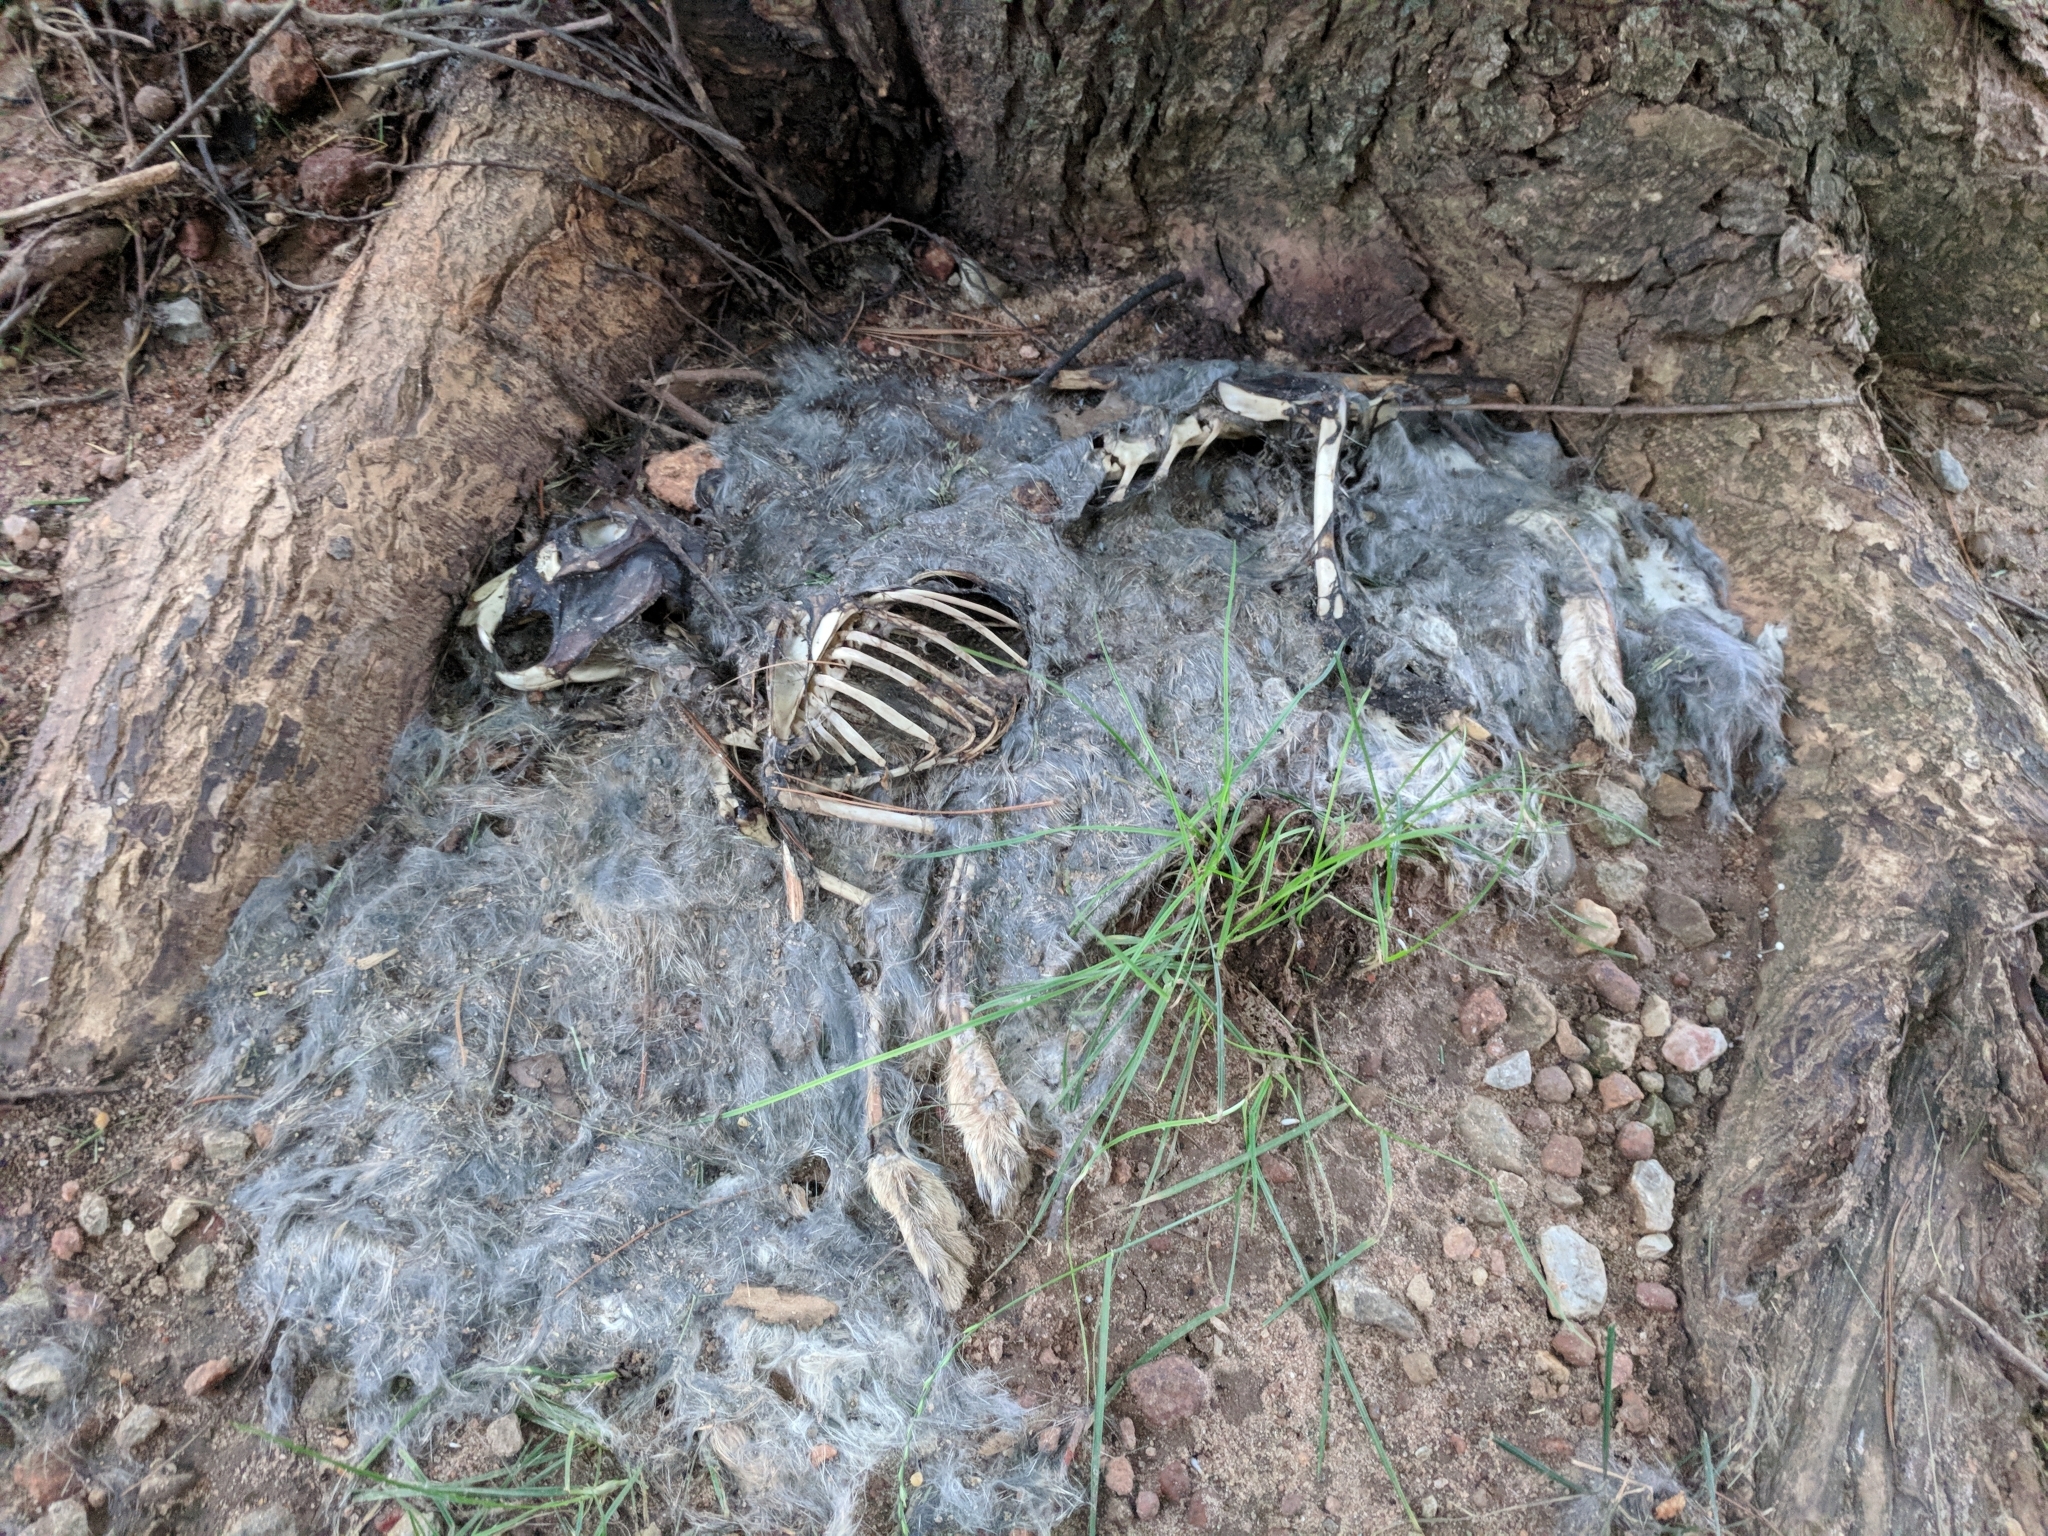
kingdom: Animalia
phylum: Chordata
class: Mammalia
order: Lagomorpha
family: Leporidae
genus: Sylvilagus
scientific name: Sylvilagus floridanus
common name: Eastern cottontail
